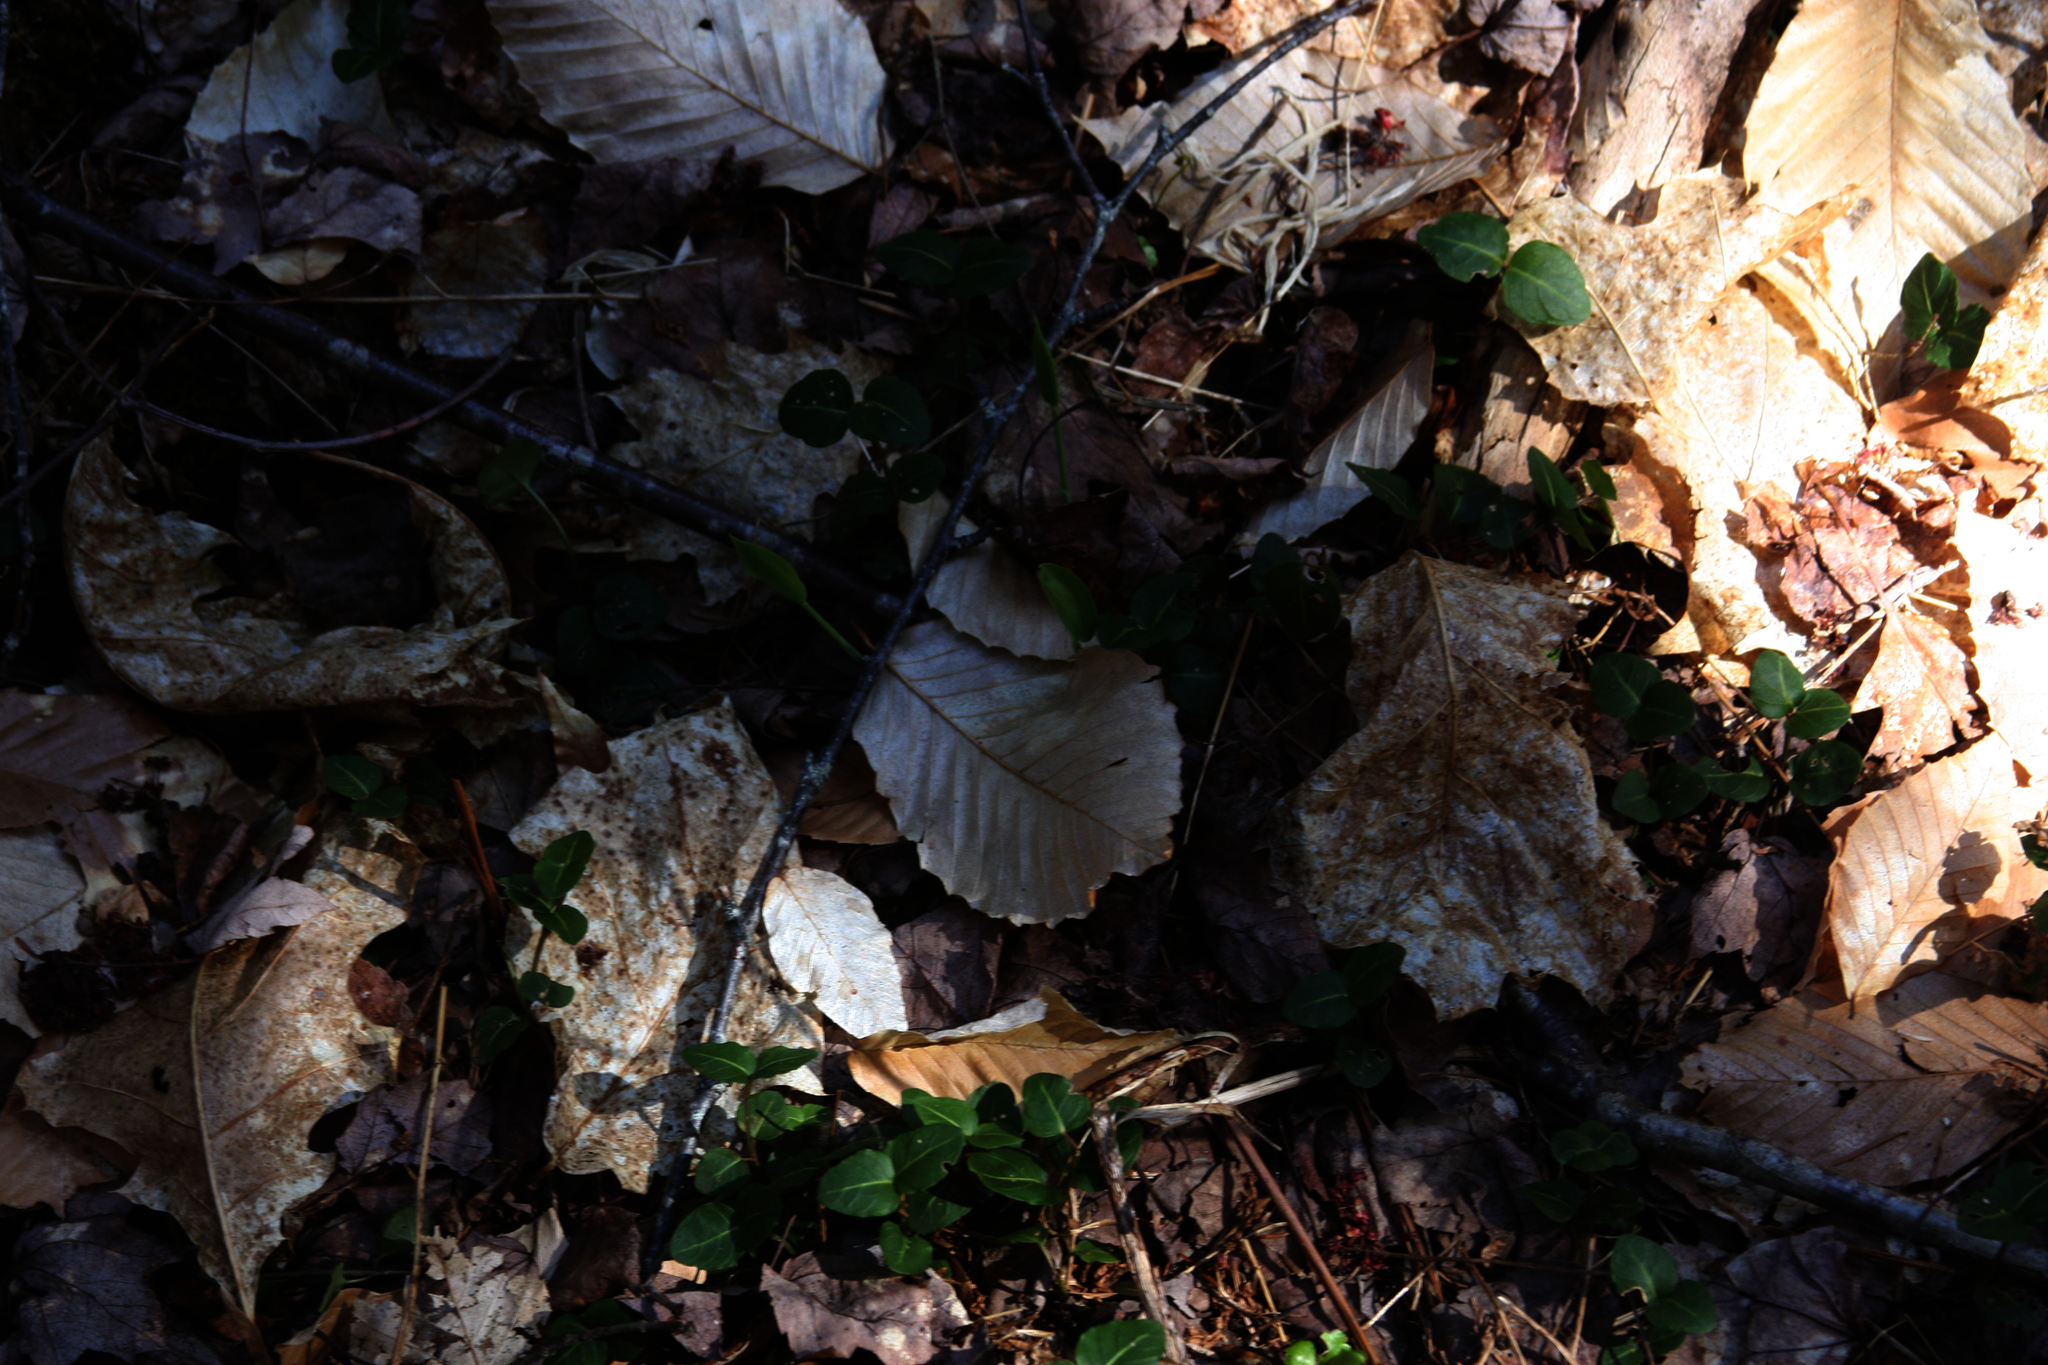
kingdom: Plantae
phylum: Tracheophyta
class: Magnoliopsida
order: Gentianales
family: Rubiaceae
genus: Mitchella
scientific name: Mitchella repens
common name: Partridge-berry
